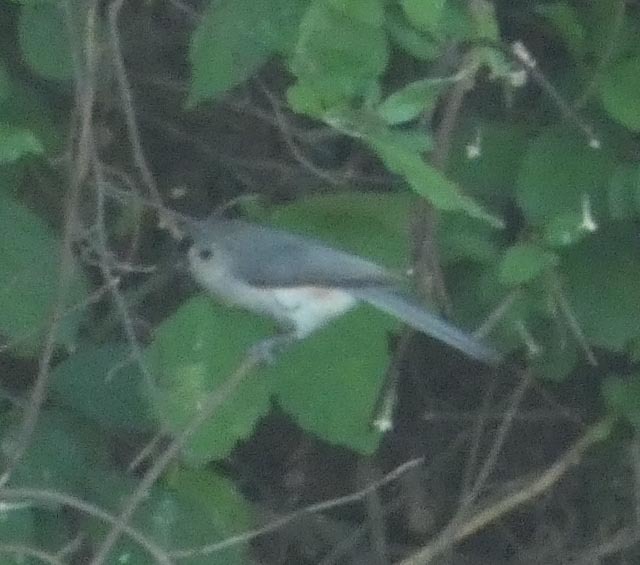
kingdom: Animalia
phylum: Chordata
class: Aves
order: Passeriformes
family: Paridae
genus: Baeolophus
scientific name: Baeolophus bicolor
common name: Tufted titmouse
